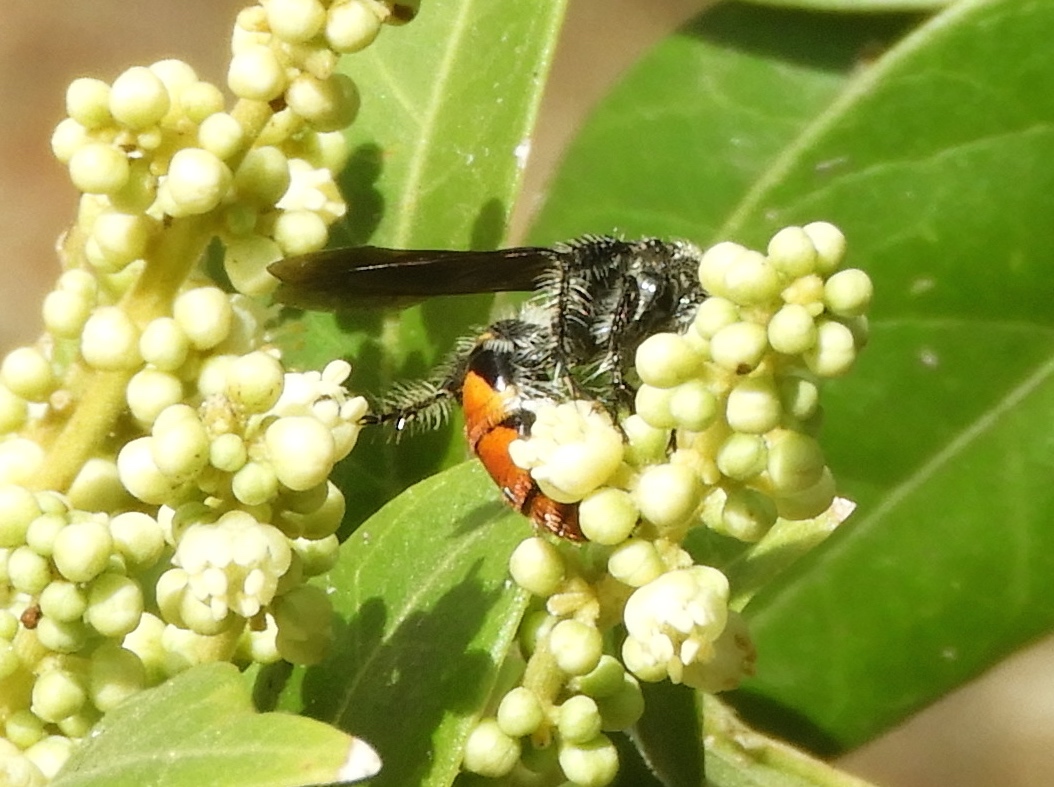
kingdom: Animalia
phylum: Arthropoda
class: Insecta
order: Hymenoptera
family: Scoliidae
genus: Dielis
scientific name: Dielis tolteca
